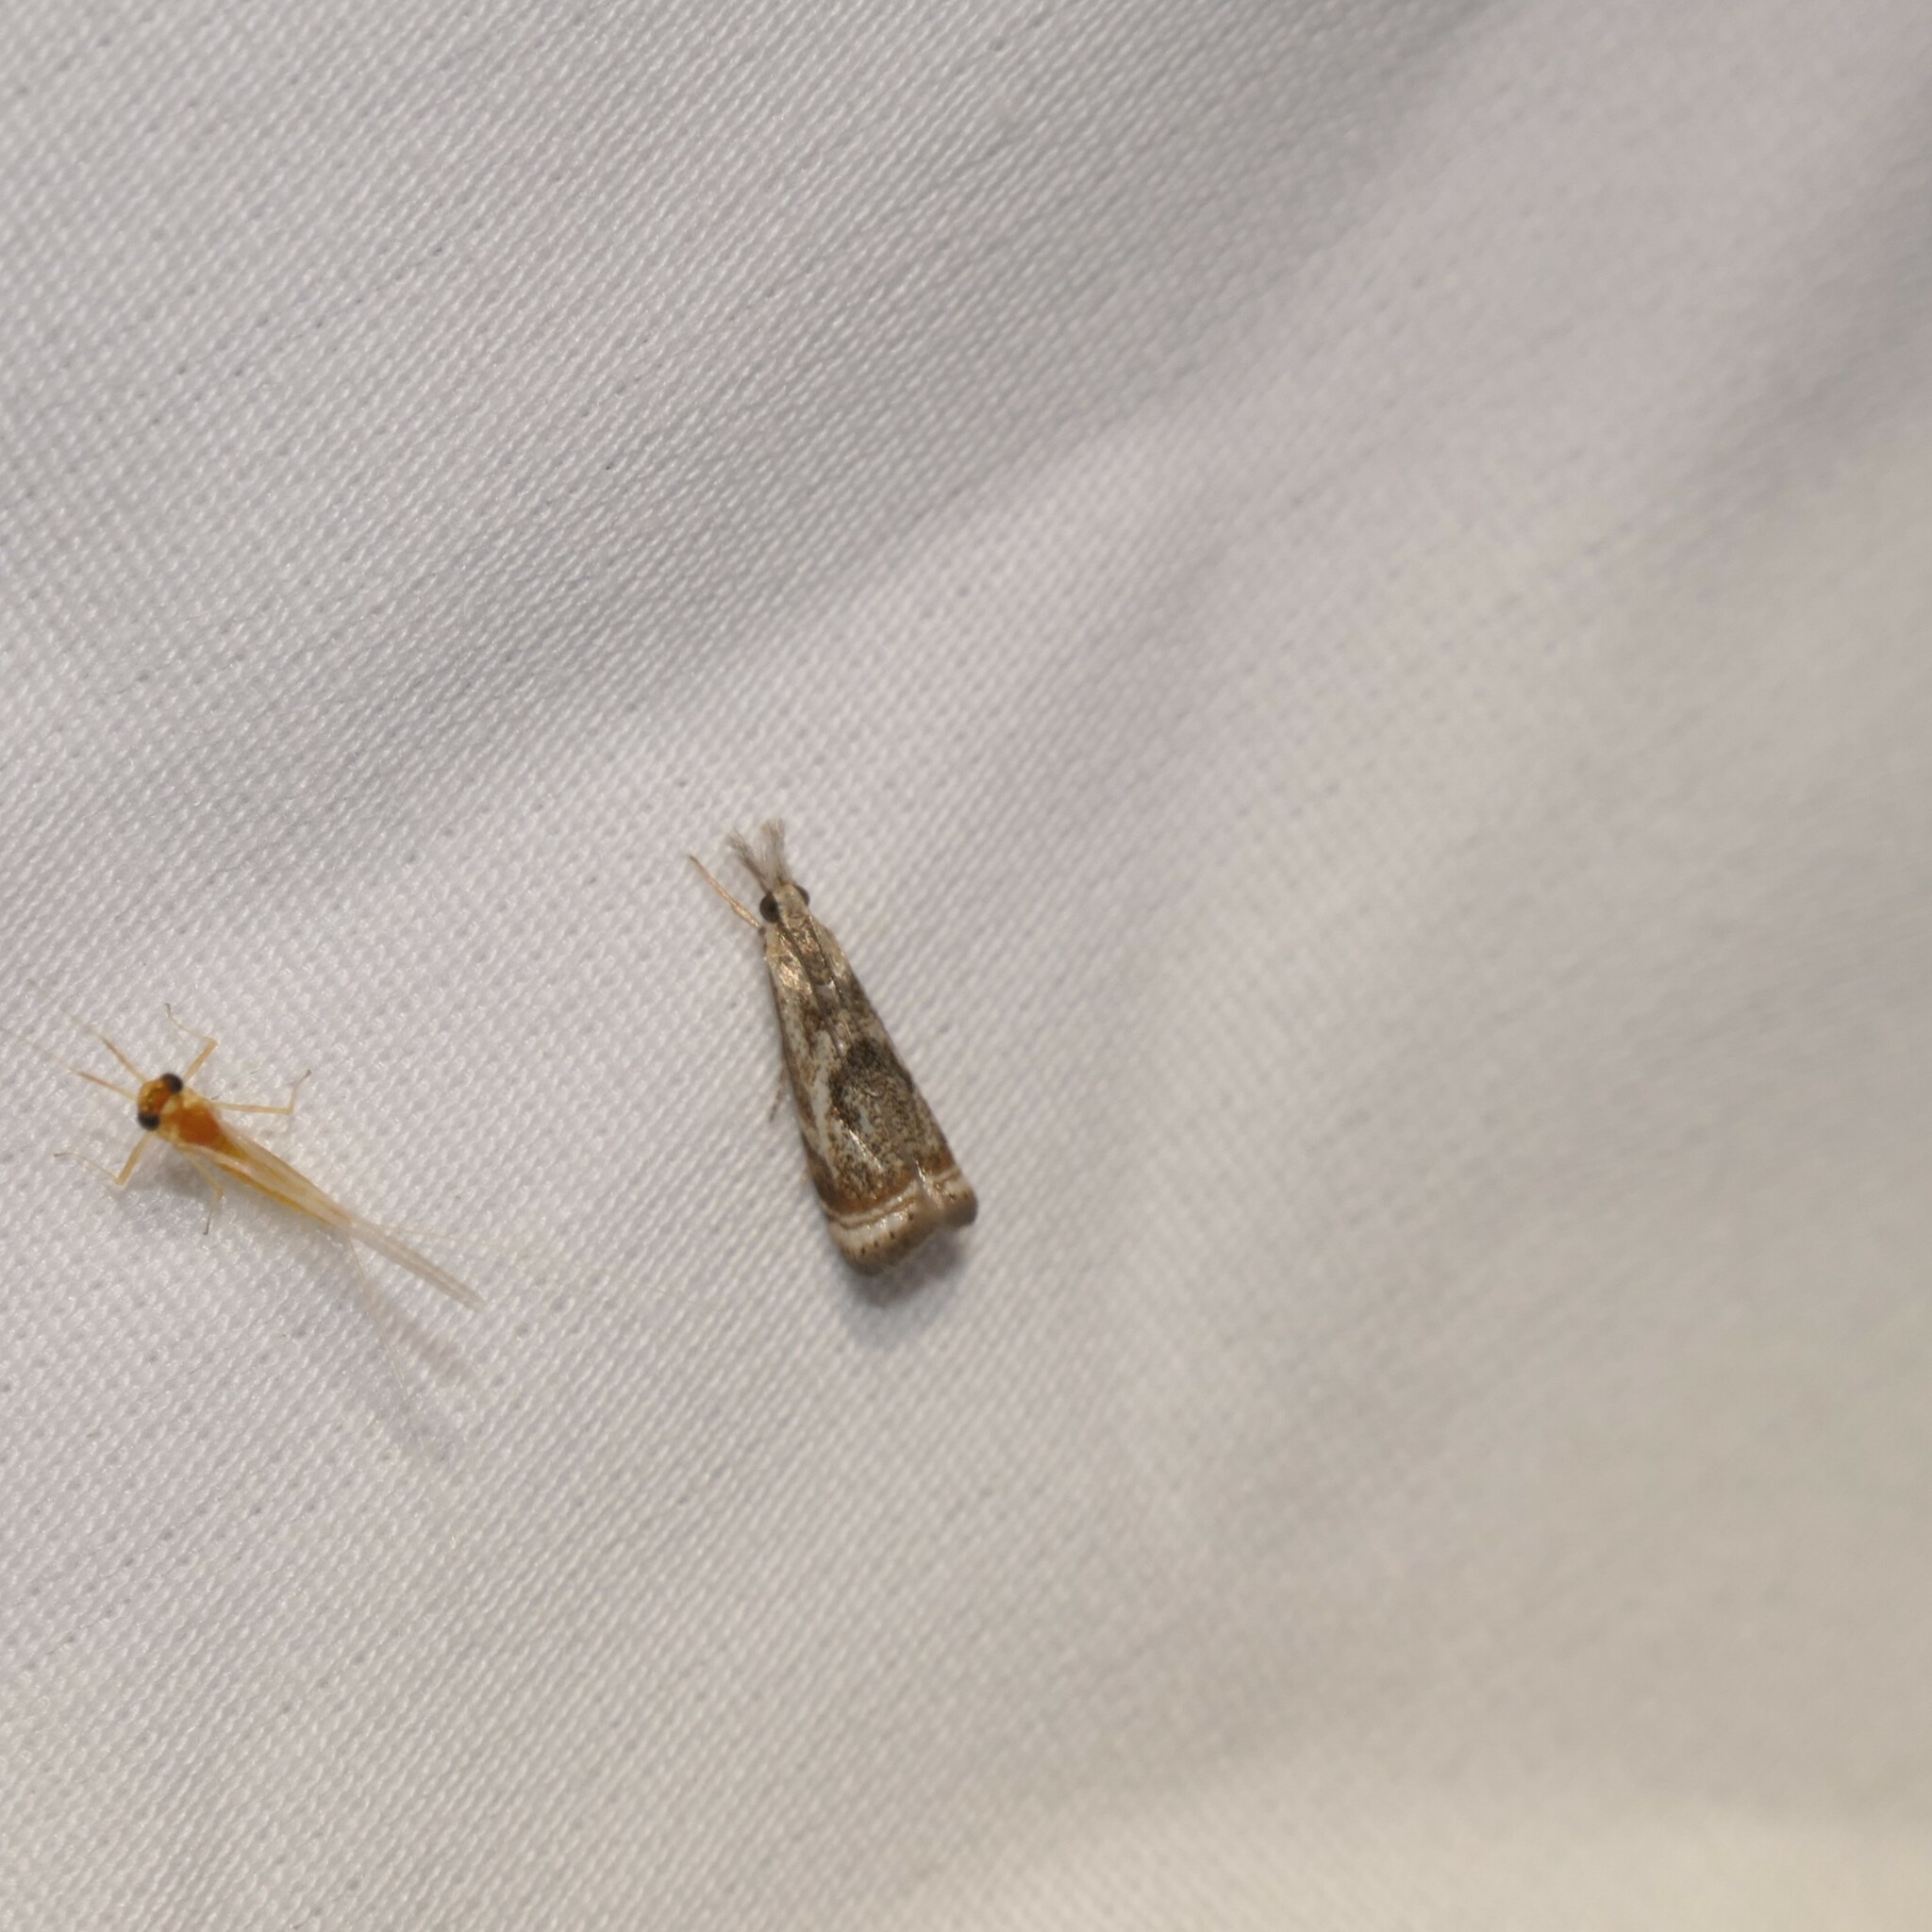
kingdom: Animalia
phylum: Arthropoda
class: Insecta
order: Lepidoptera
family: Crambidae
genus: Microcrambus
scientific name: Microcrambus elegans
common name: Elegant grass-veneer
